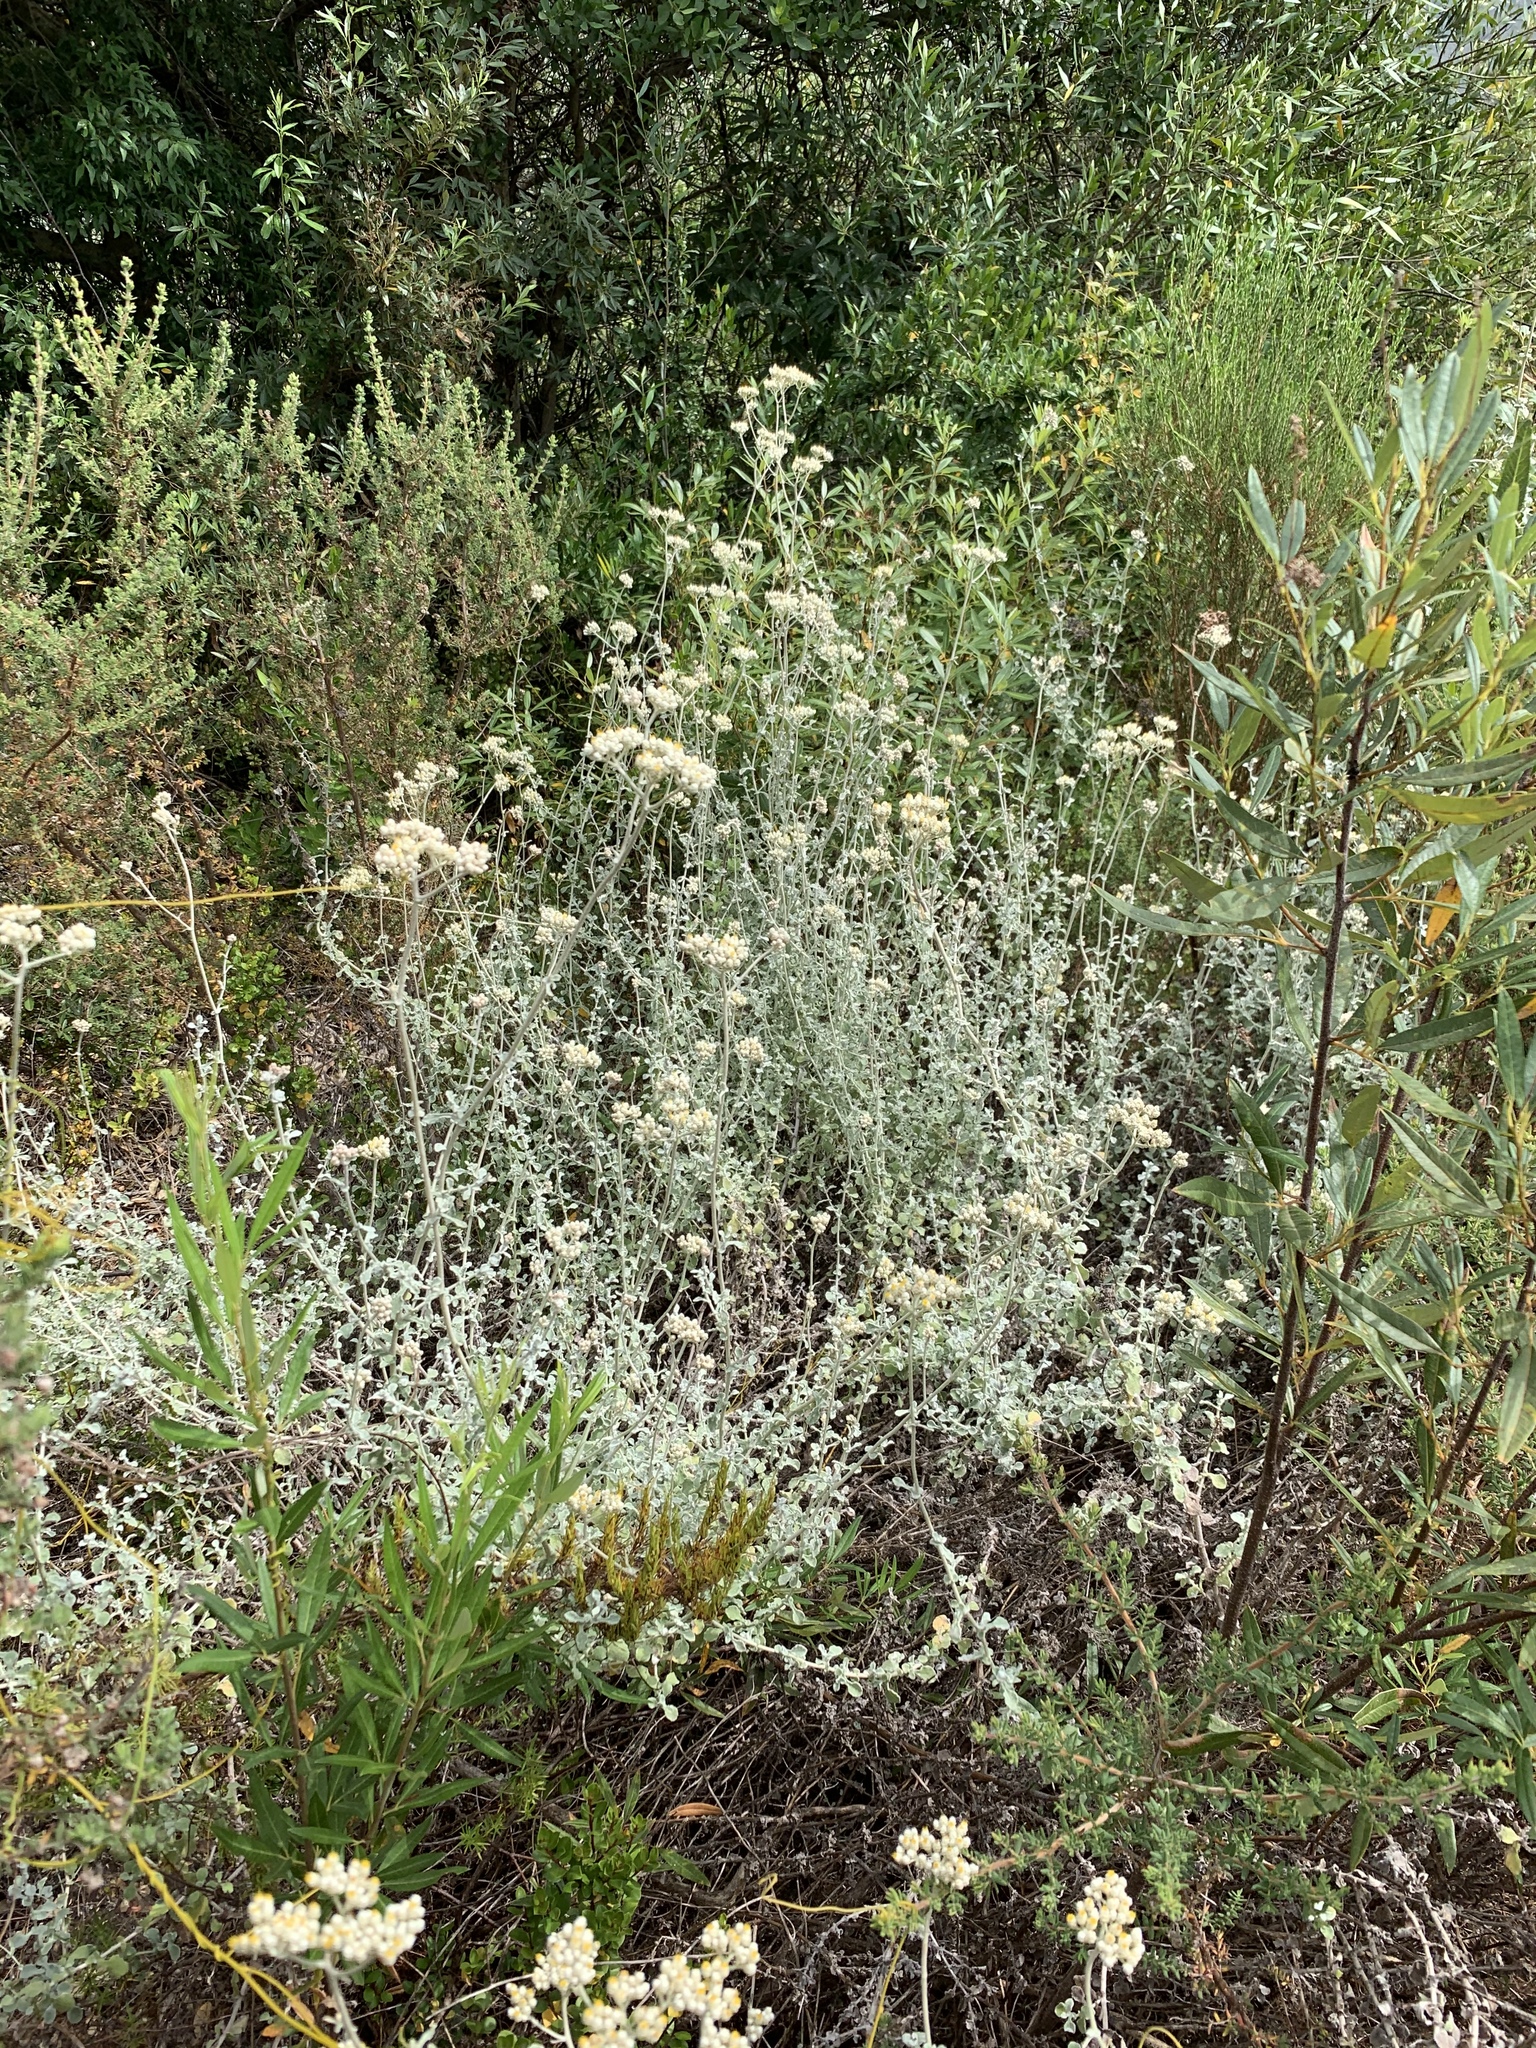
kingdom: Plantae
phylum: Tracheophyta
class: Magnoliopsida
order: Asterales
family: Asteraceae
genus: Helichrysum
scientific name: Helichrysum patulum
